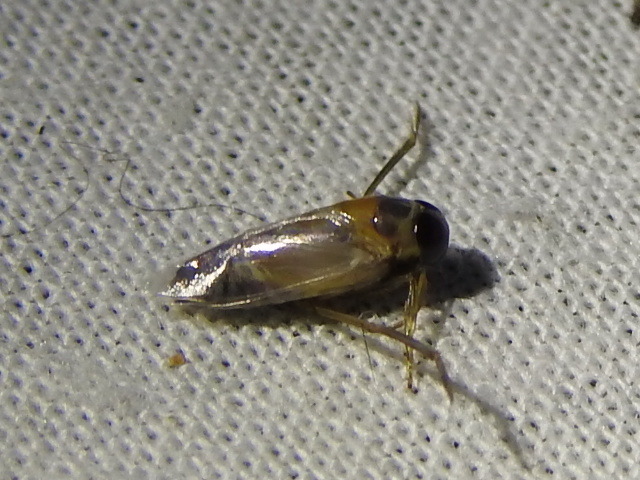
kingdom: Animalia
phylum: Arthropoda
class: Insecta
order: Hemiptera
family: Notonectidae
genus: Buenoa
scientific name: Buenoa
